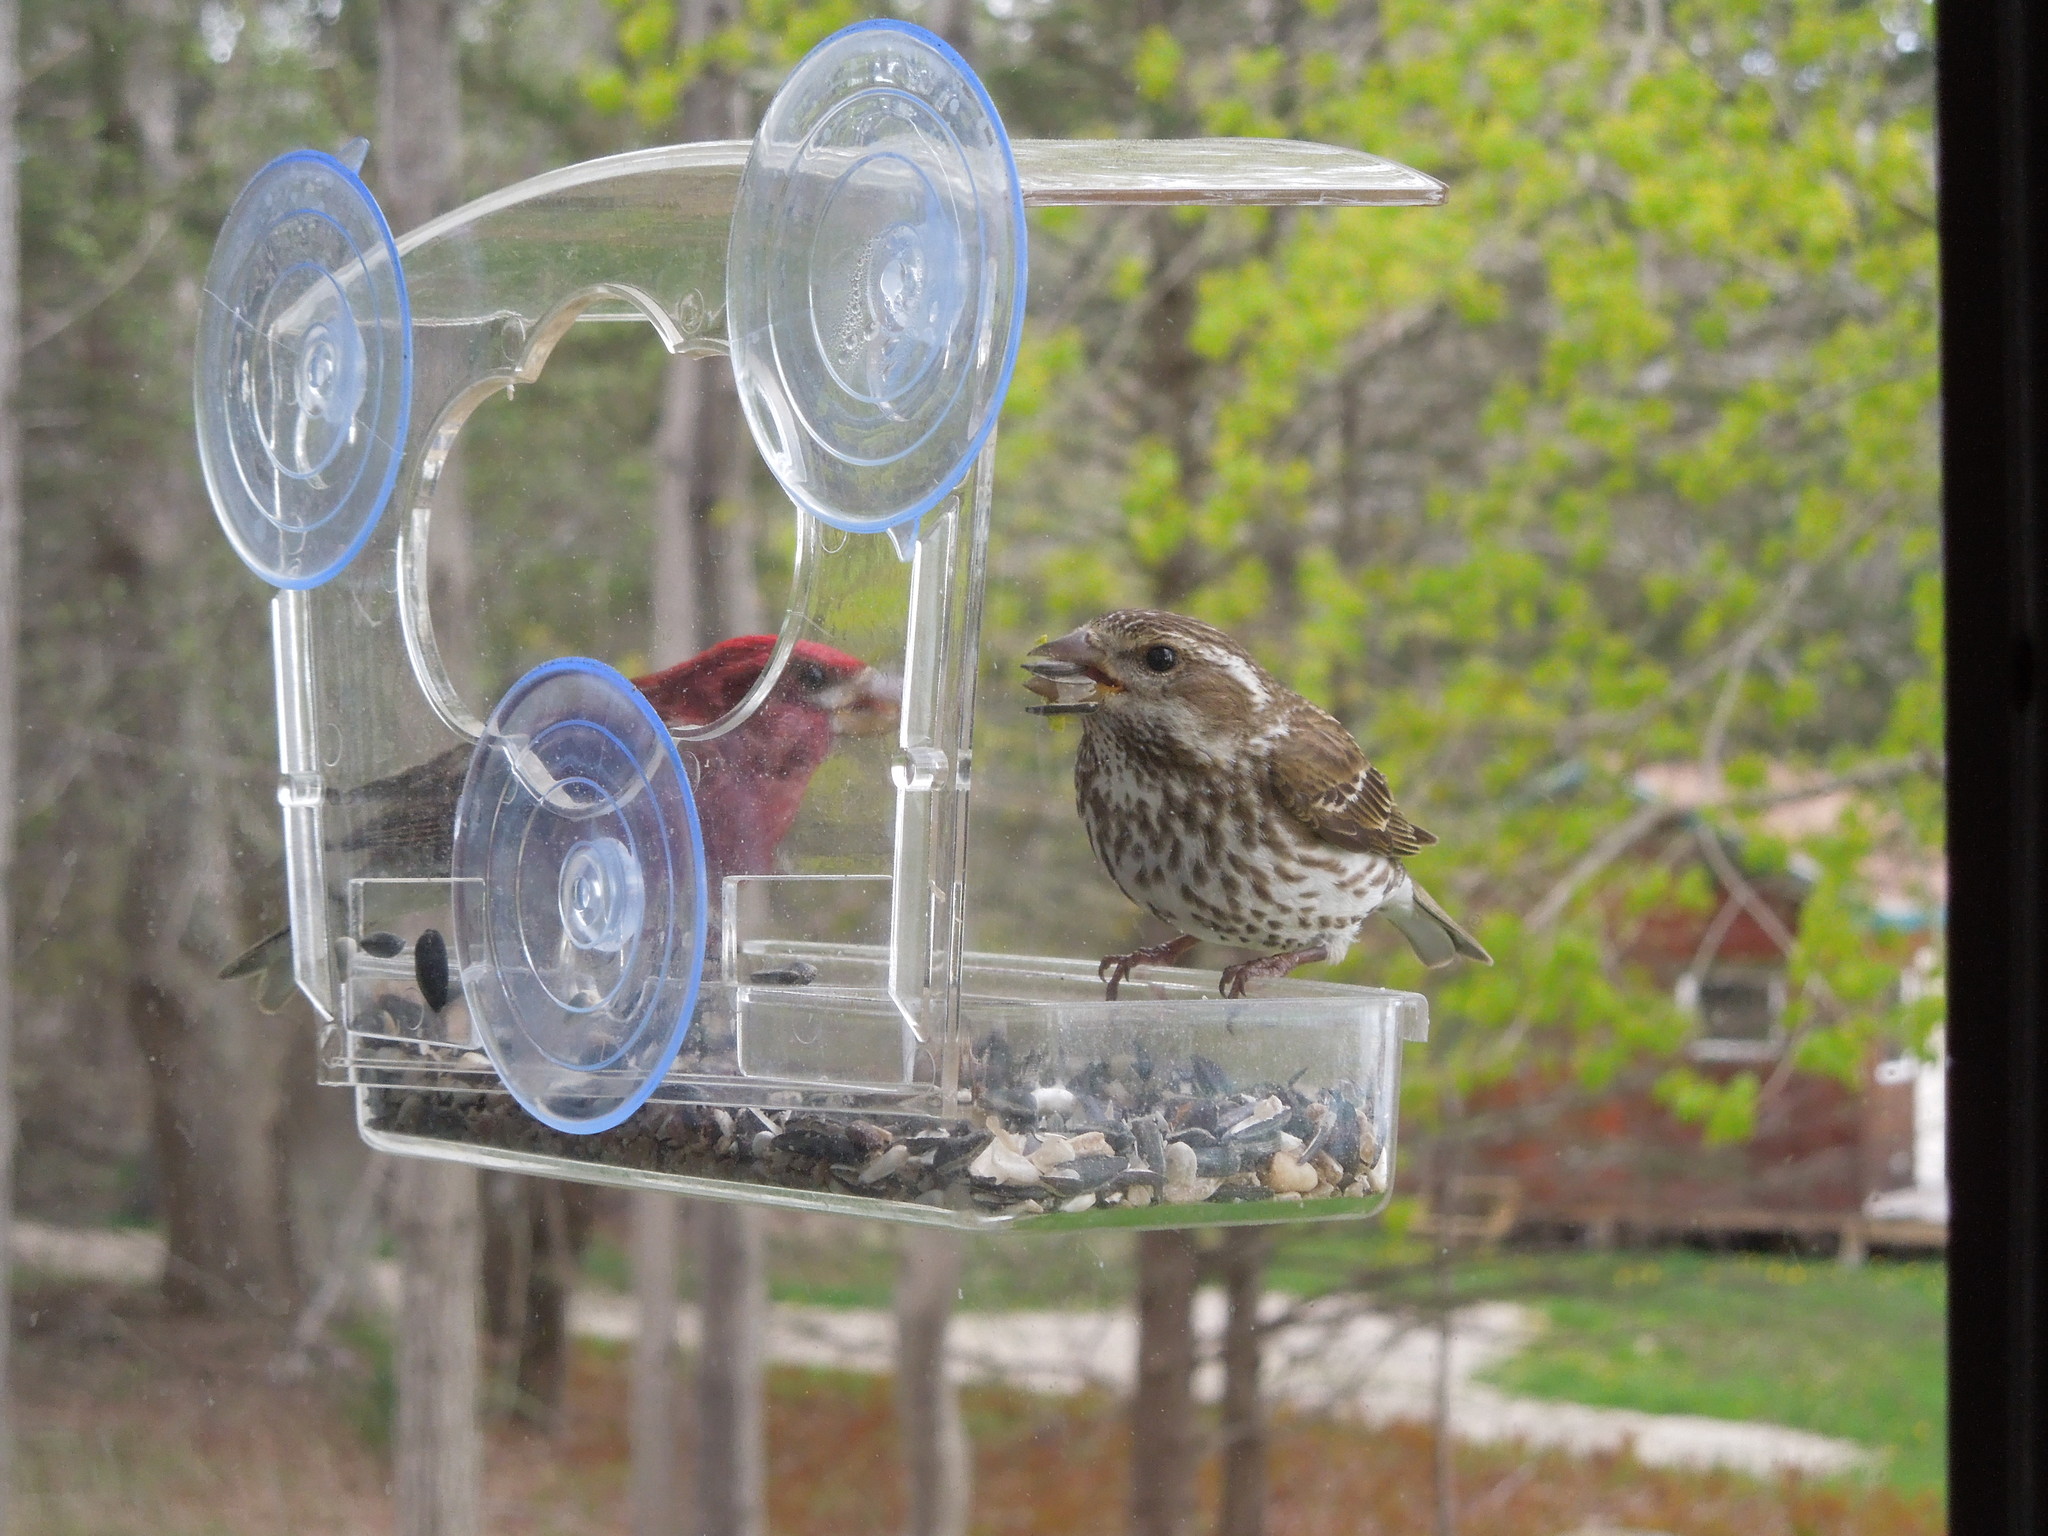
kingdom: Animalia
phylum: Chordata
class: Aves
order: Passeriformes
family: Fringillidae
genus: Haemorhous
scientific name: Haemorhous purpureus
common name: Purple finch
